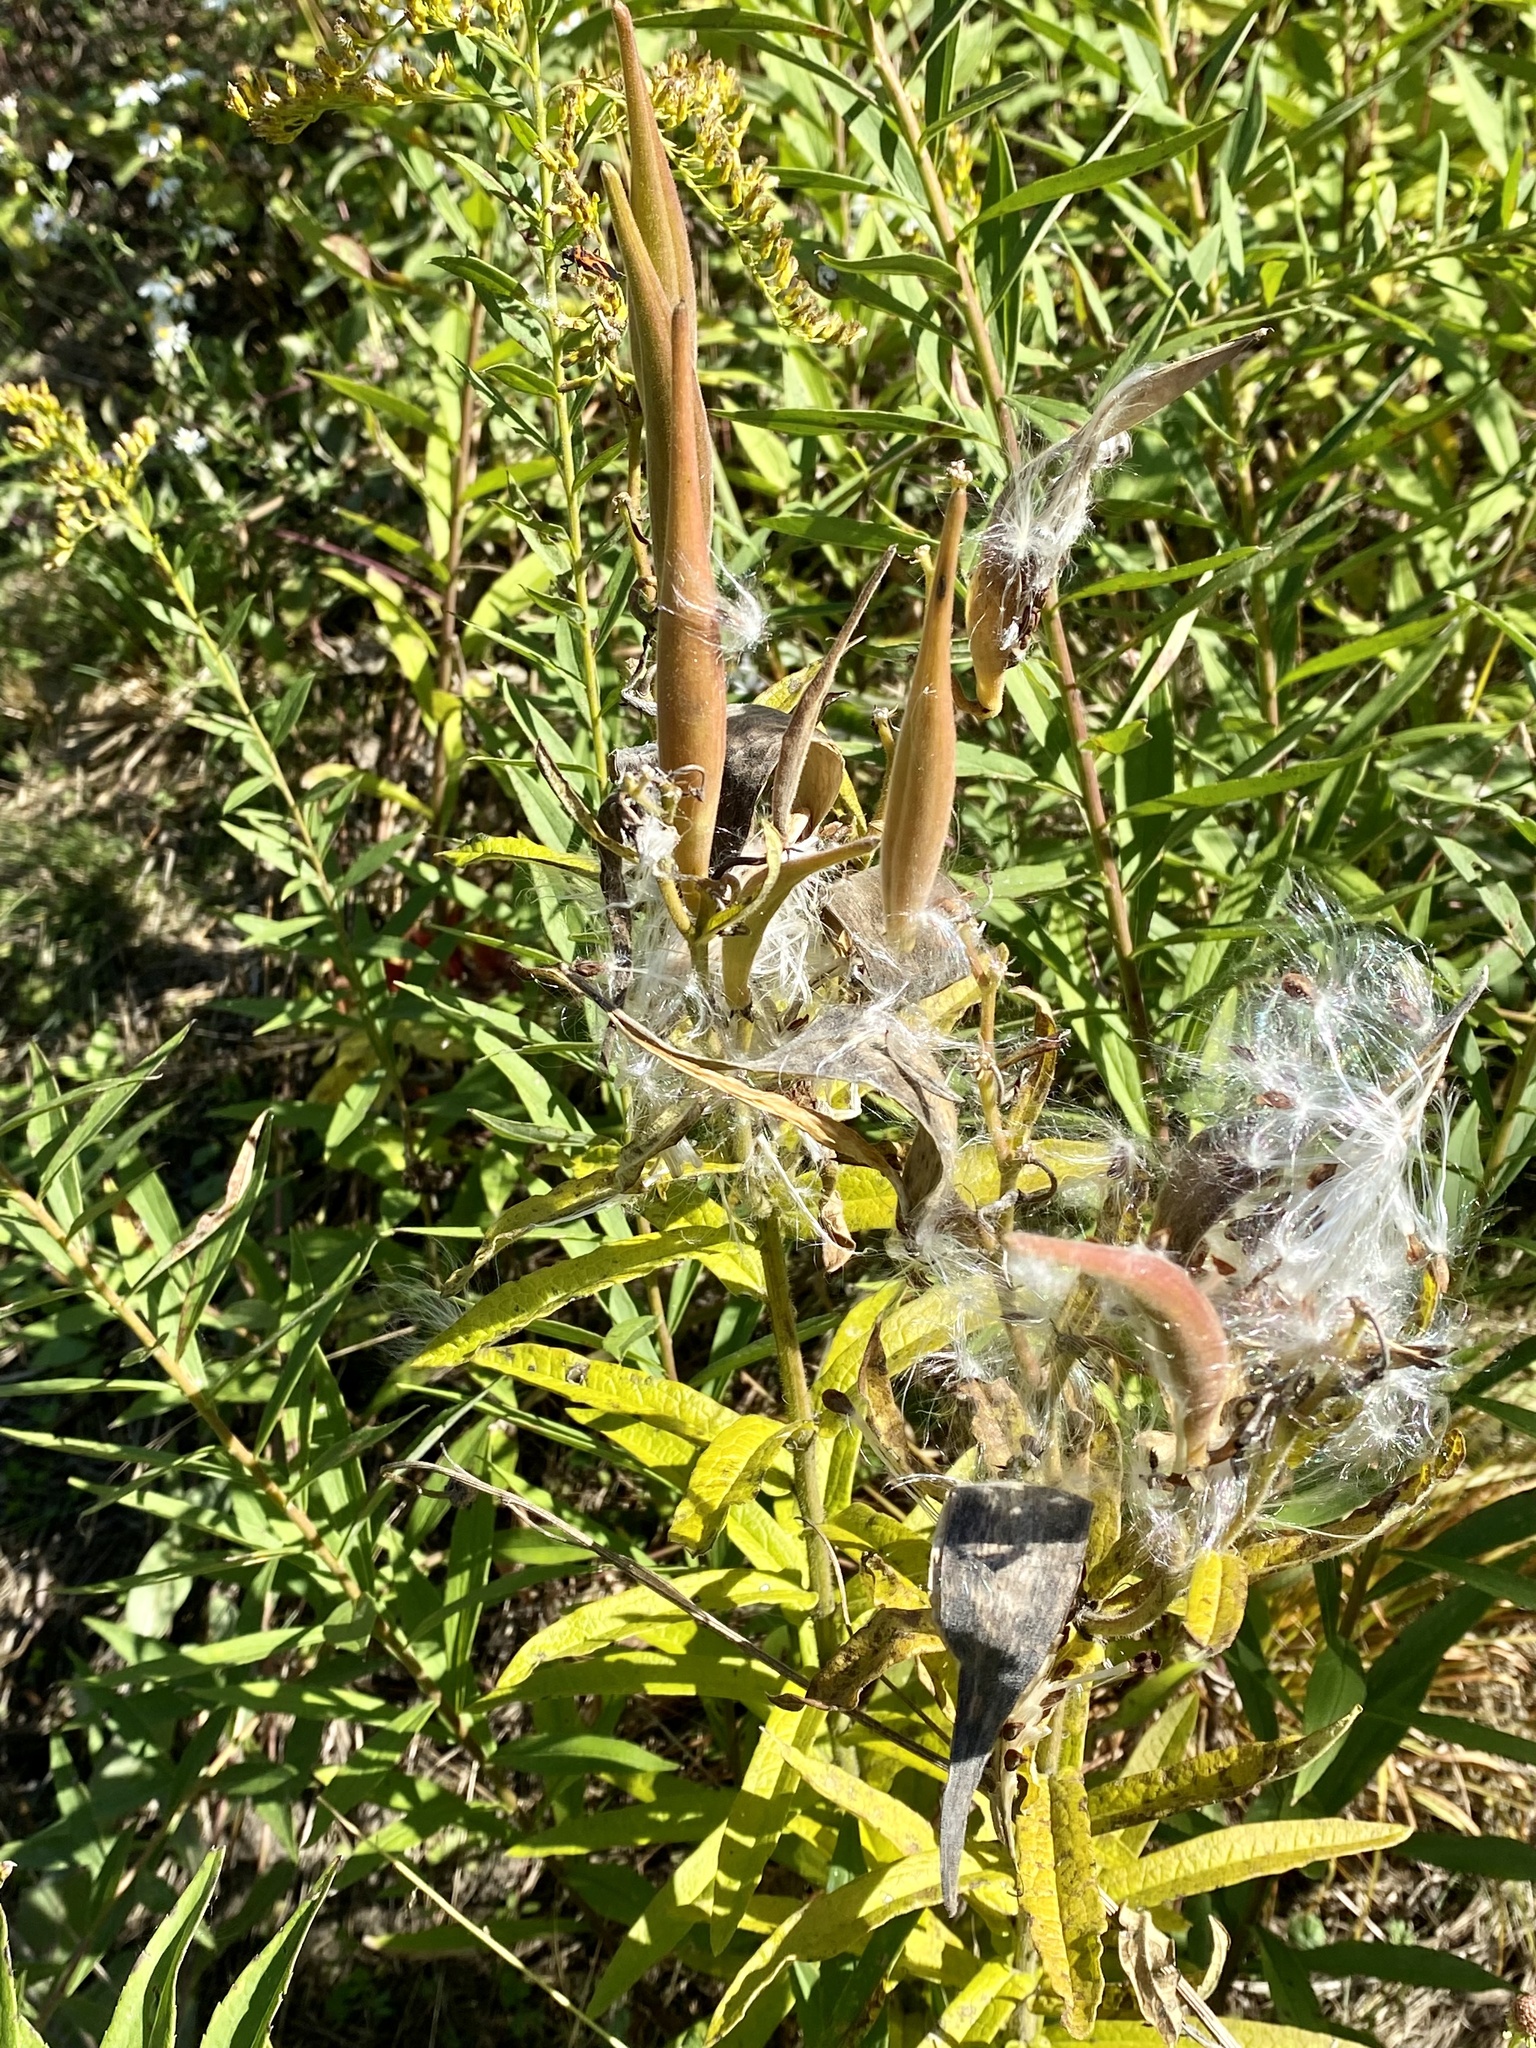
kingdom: Plantae
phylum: Tracheophyta
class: Magnoliopsida
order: Gentianales
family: Apocynaceae
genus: Asclepias
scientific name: Asclepias tuberosa
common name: Butterfly milkweed
